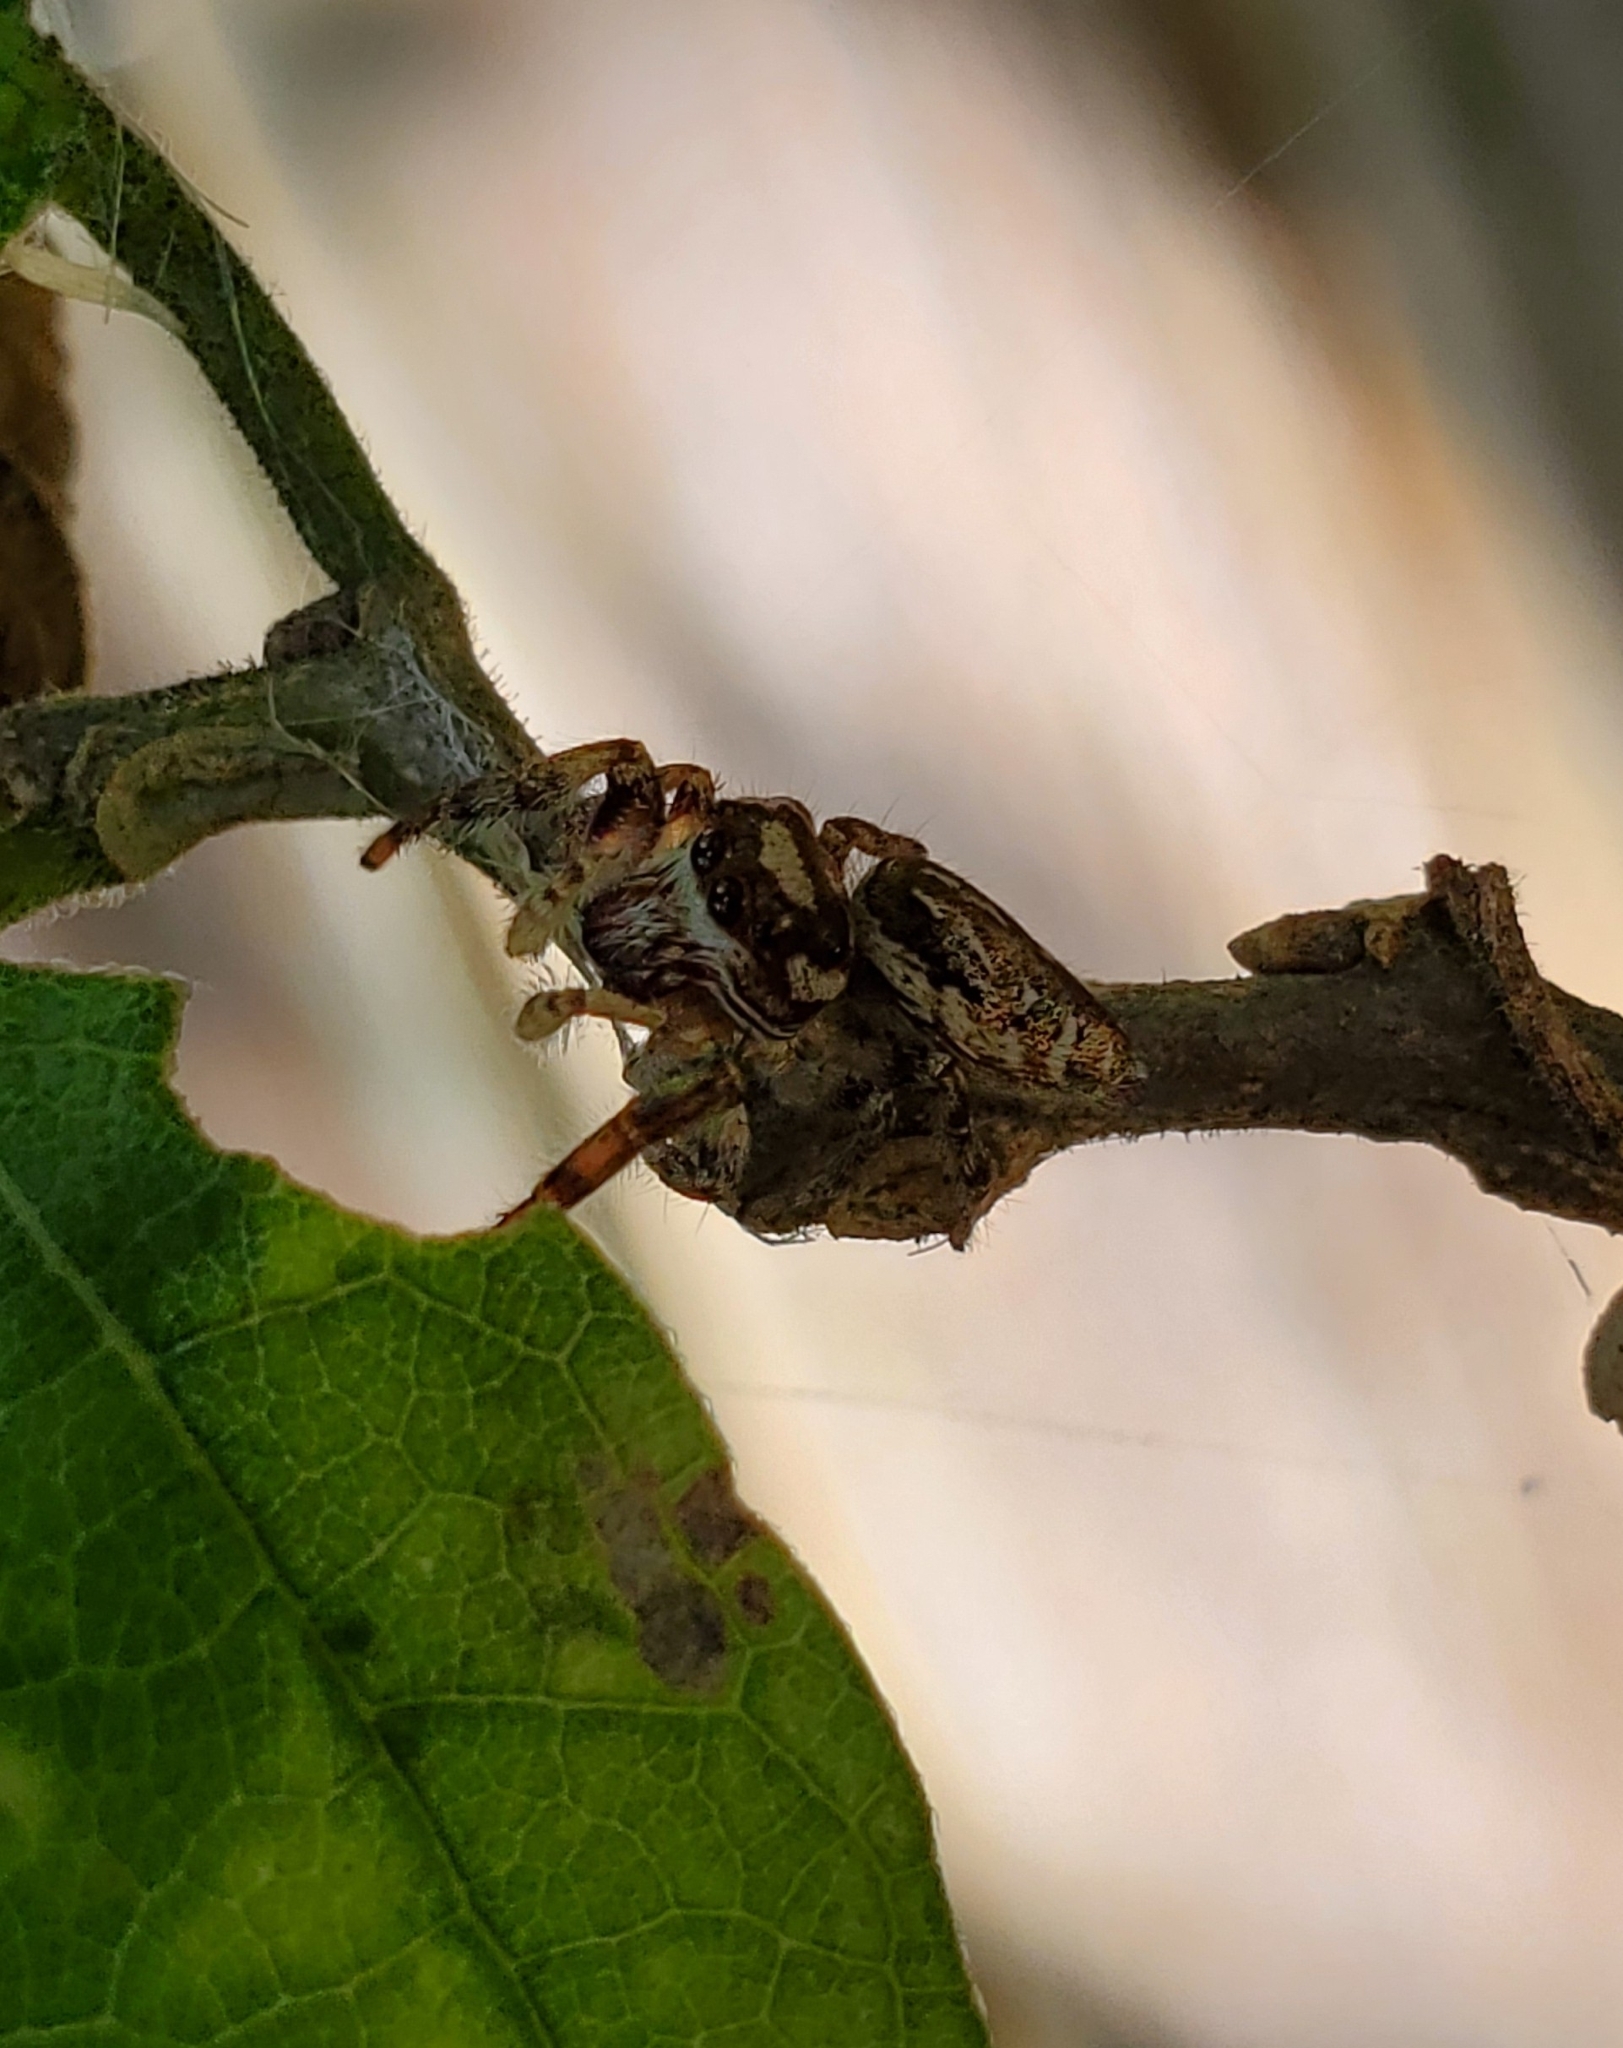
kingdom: Animalia
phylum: Arthropoda
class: Arachnida
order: Araneae
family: Salticidae
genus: Eris
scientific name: Eris militaris
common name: Bronze jumper
